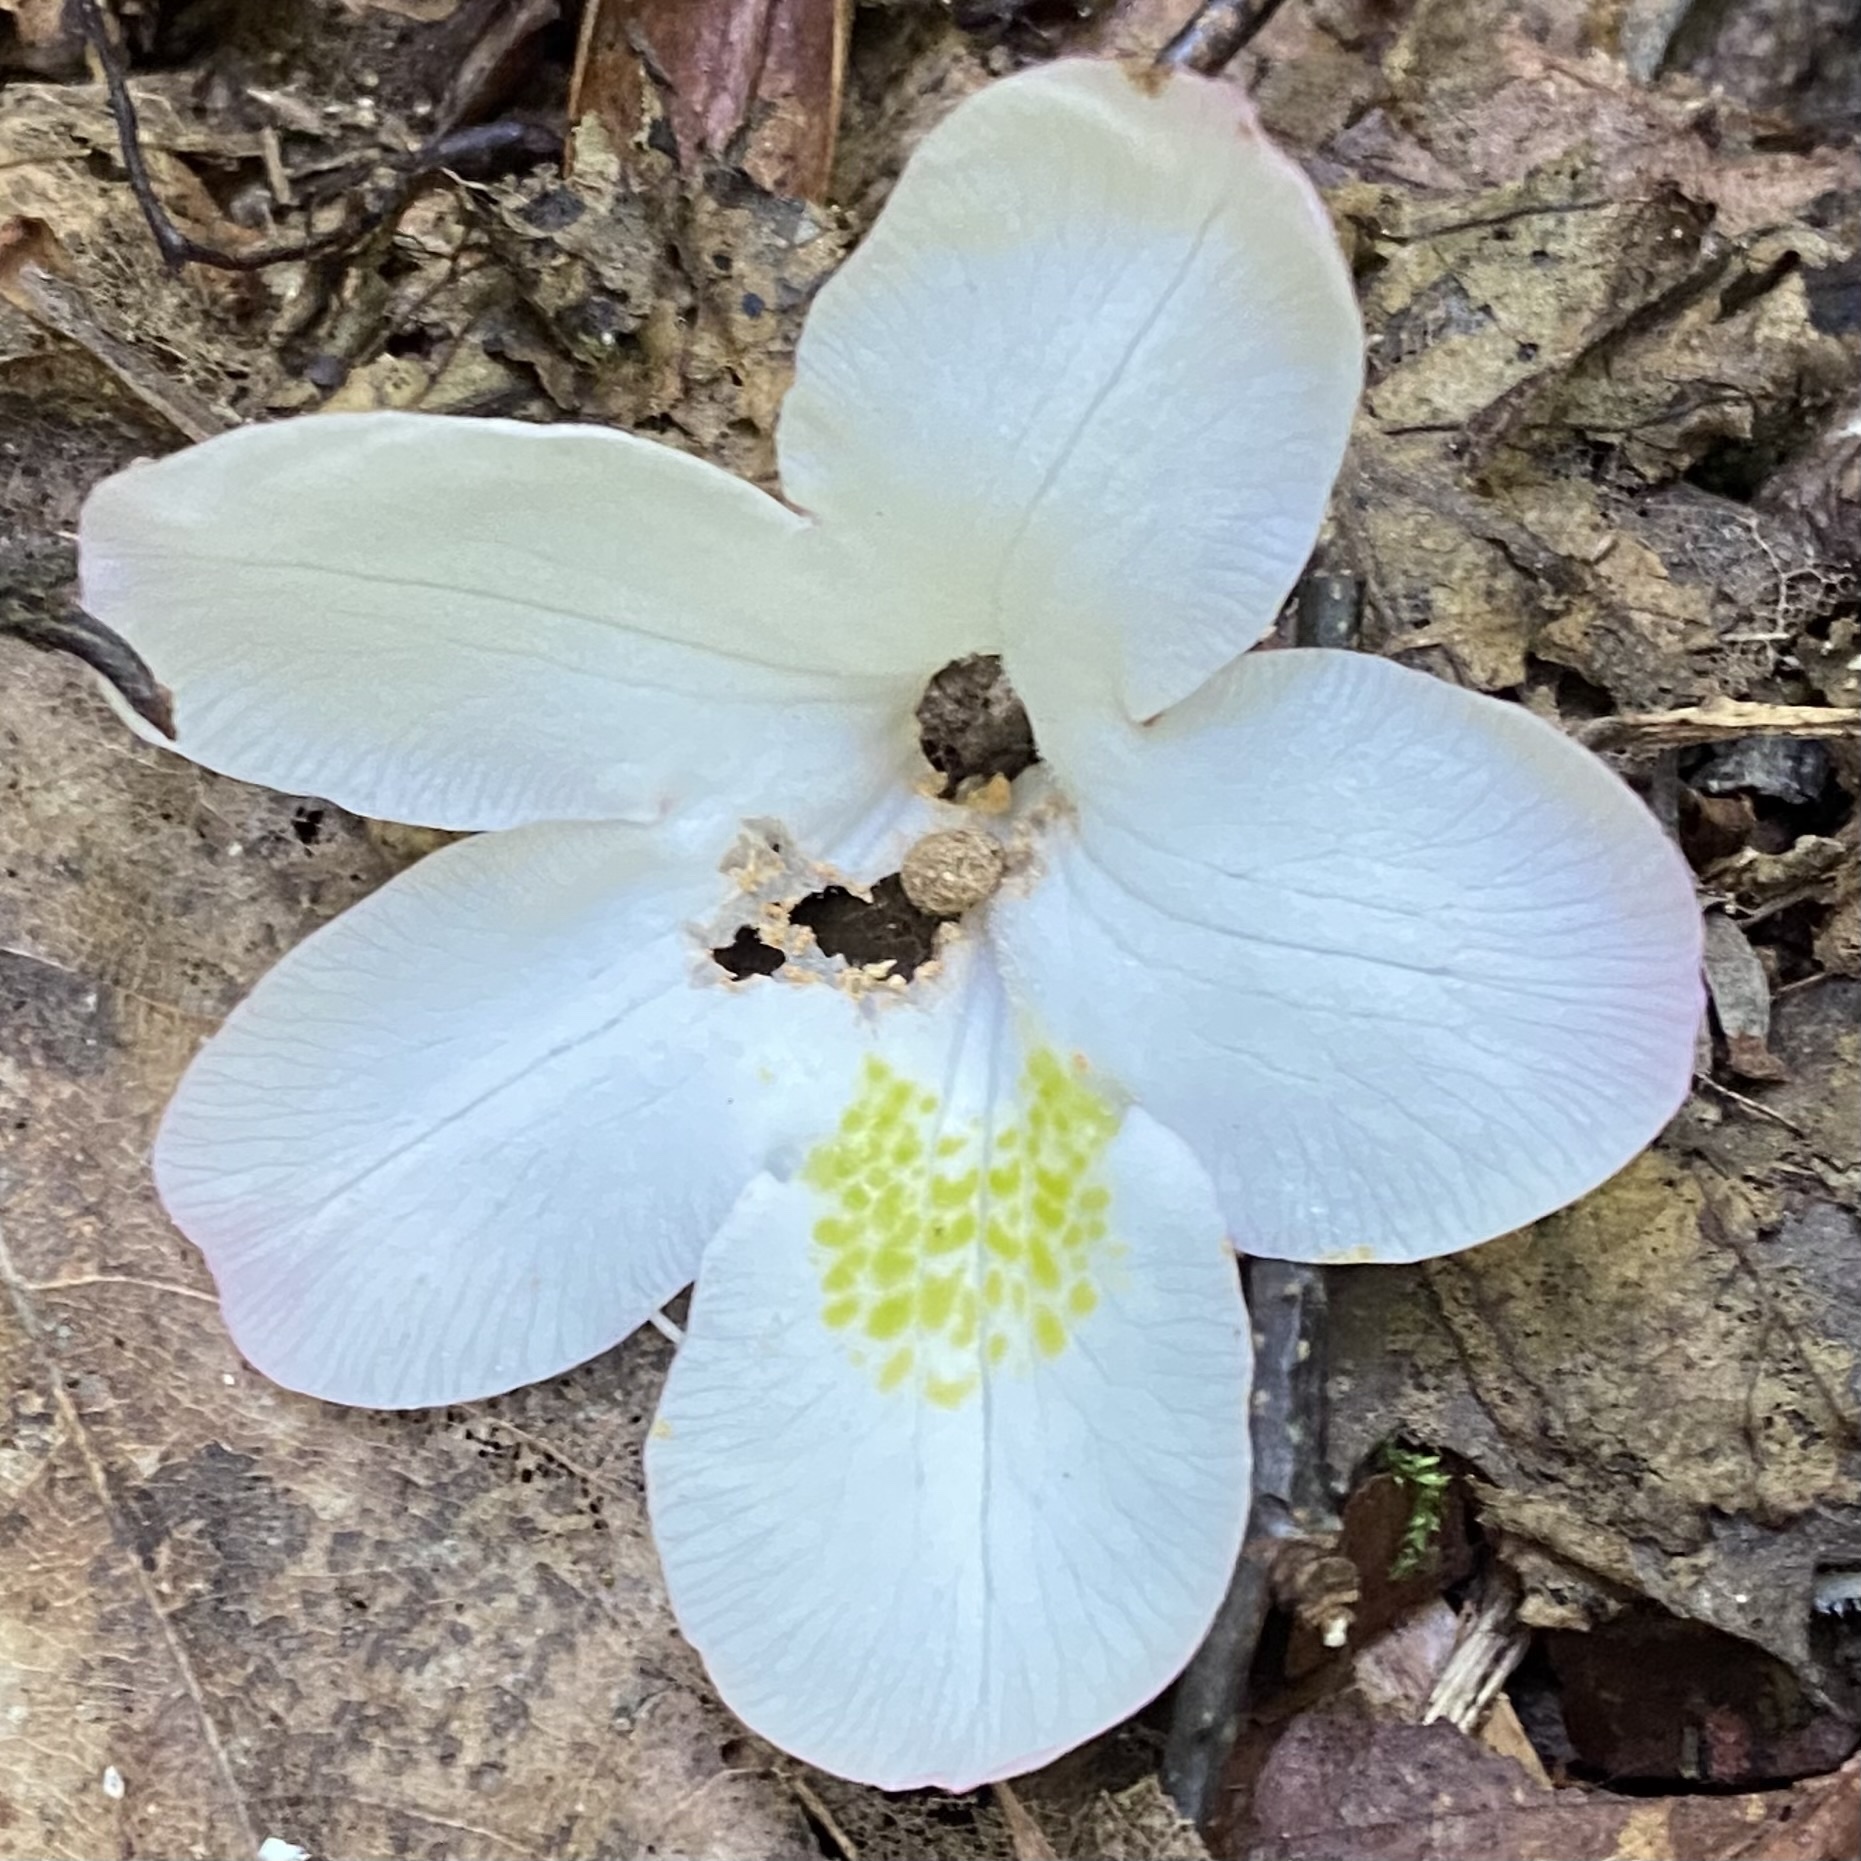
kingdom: Plantae
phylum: Tracheophyta
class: Magnoliopsida
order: Ericales
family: Ericaceae
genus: Rhododendron
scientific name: Rhododendron maximum
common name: Great rhododendron
